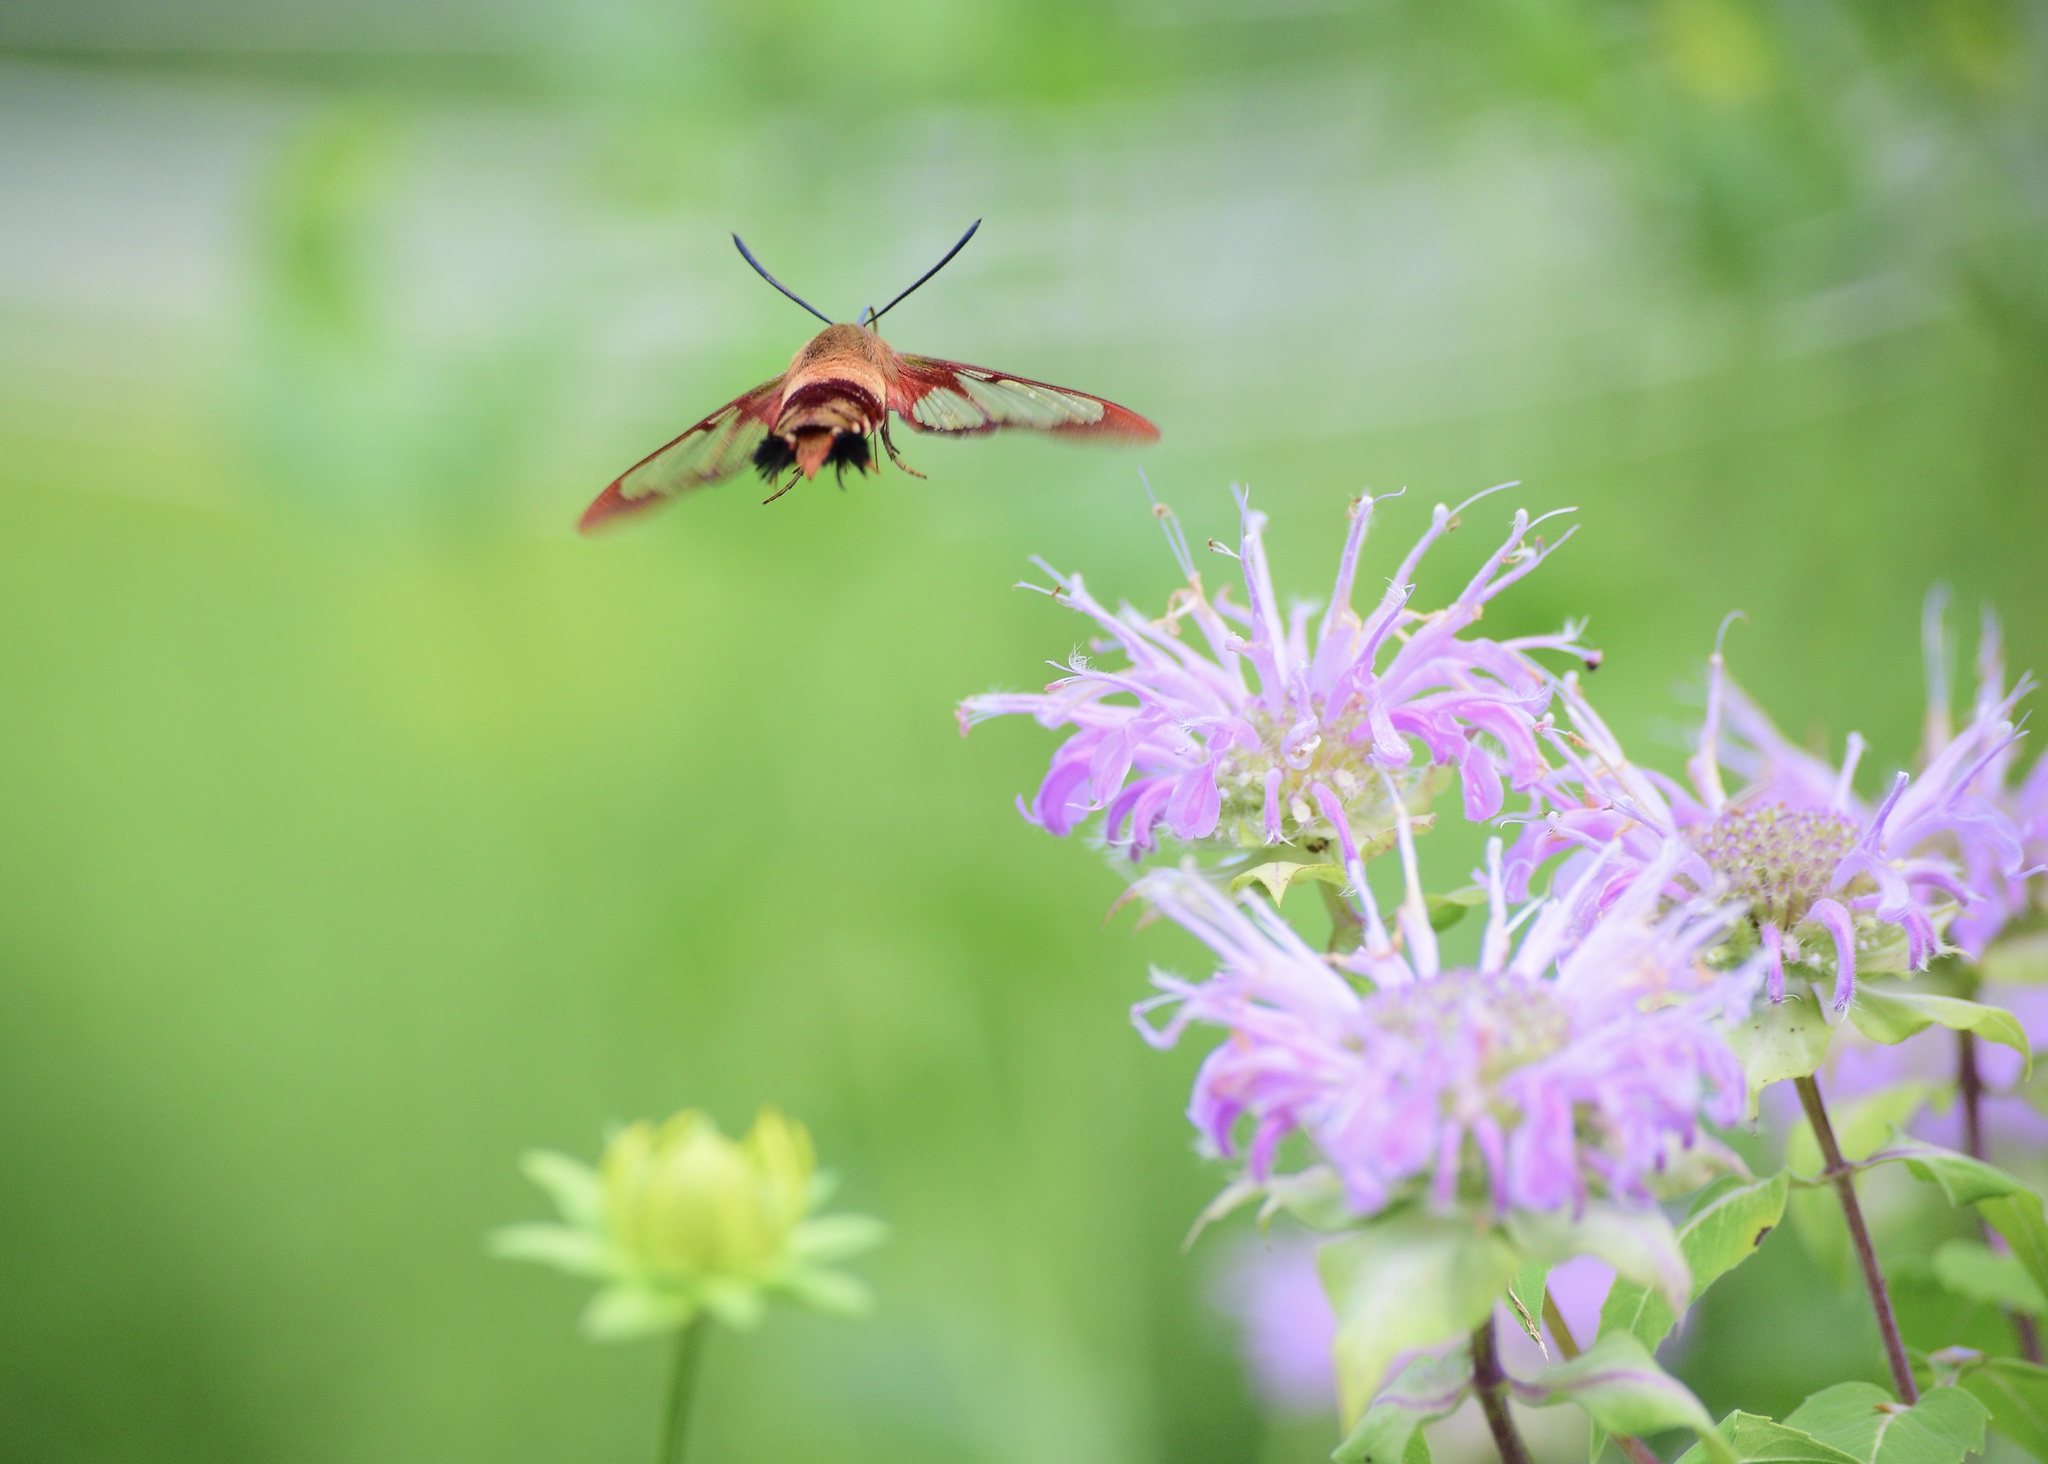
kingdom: Animalia
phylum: Arthropoda
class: Insecta
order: Lepidoptera
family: Sphingidae
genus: Hemaris
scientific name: Hemaris thysbe
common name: Common clear-wing
